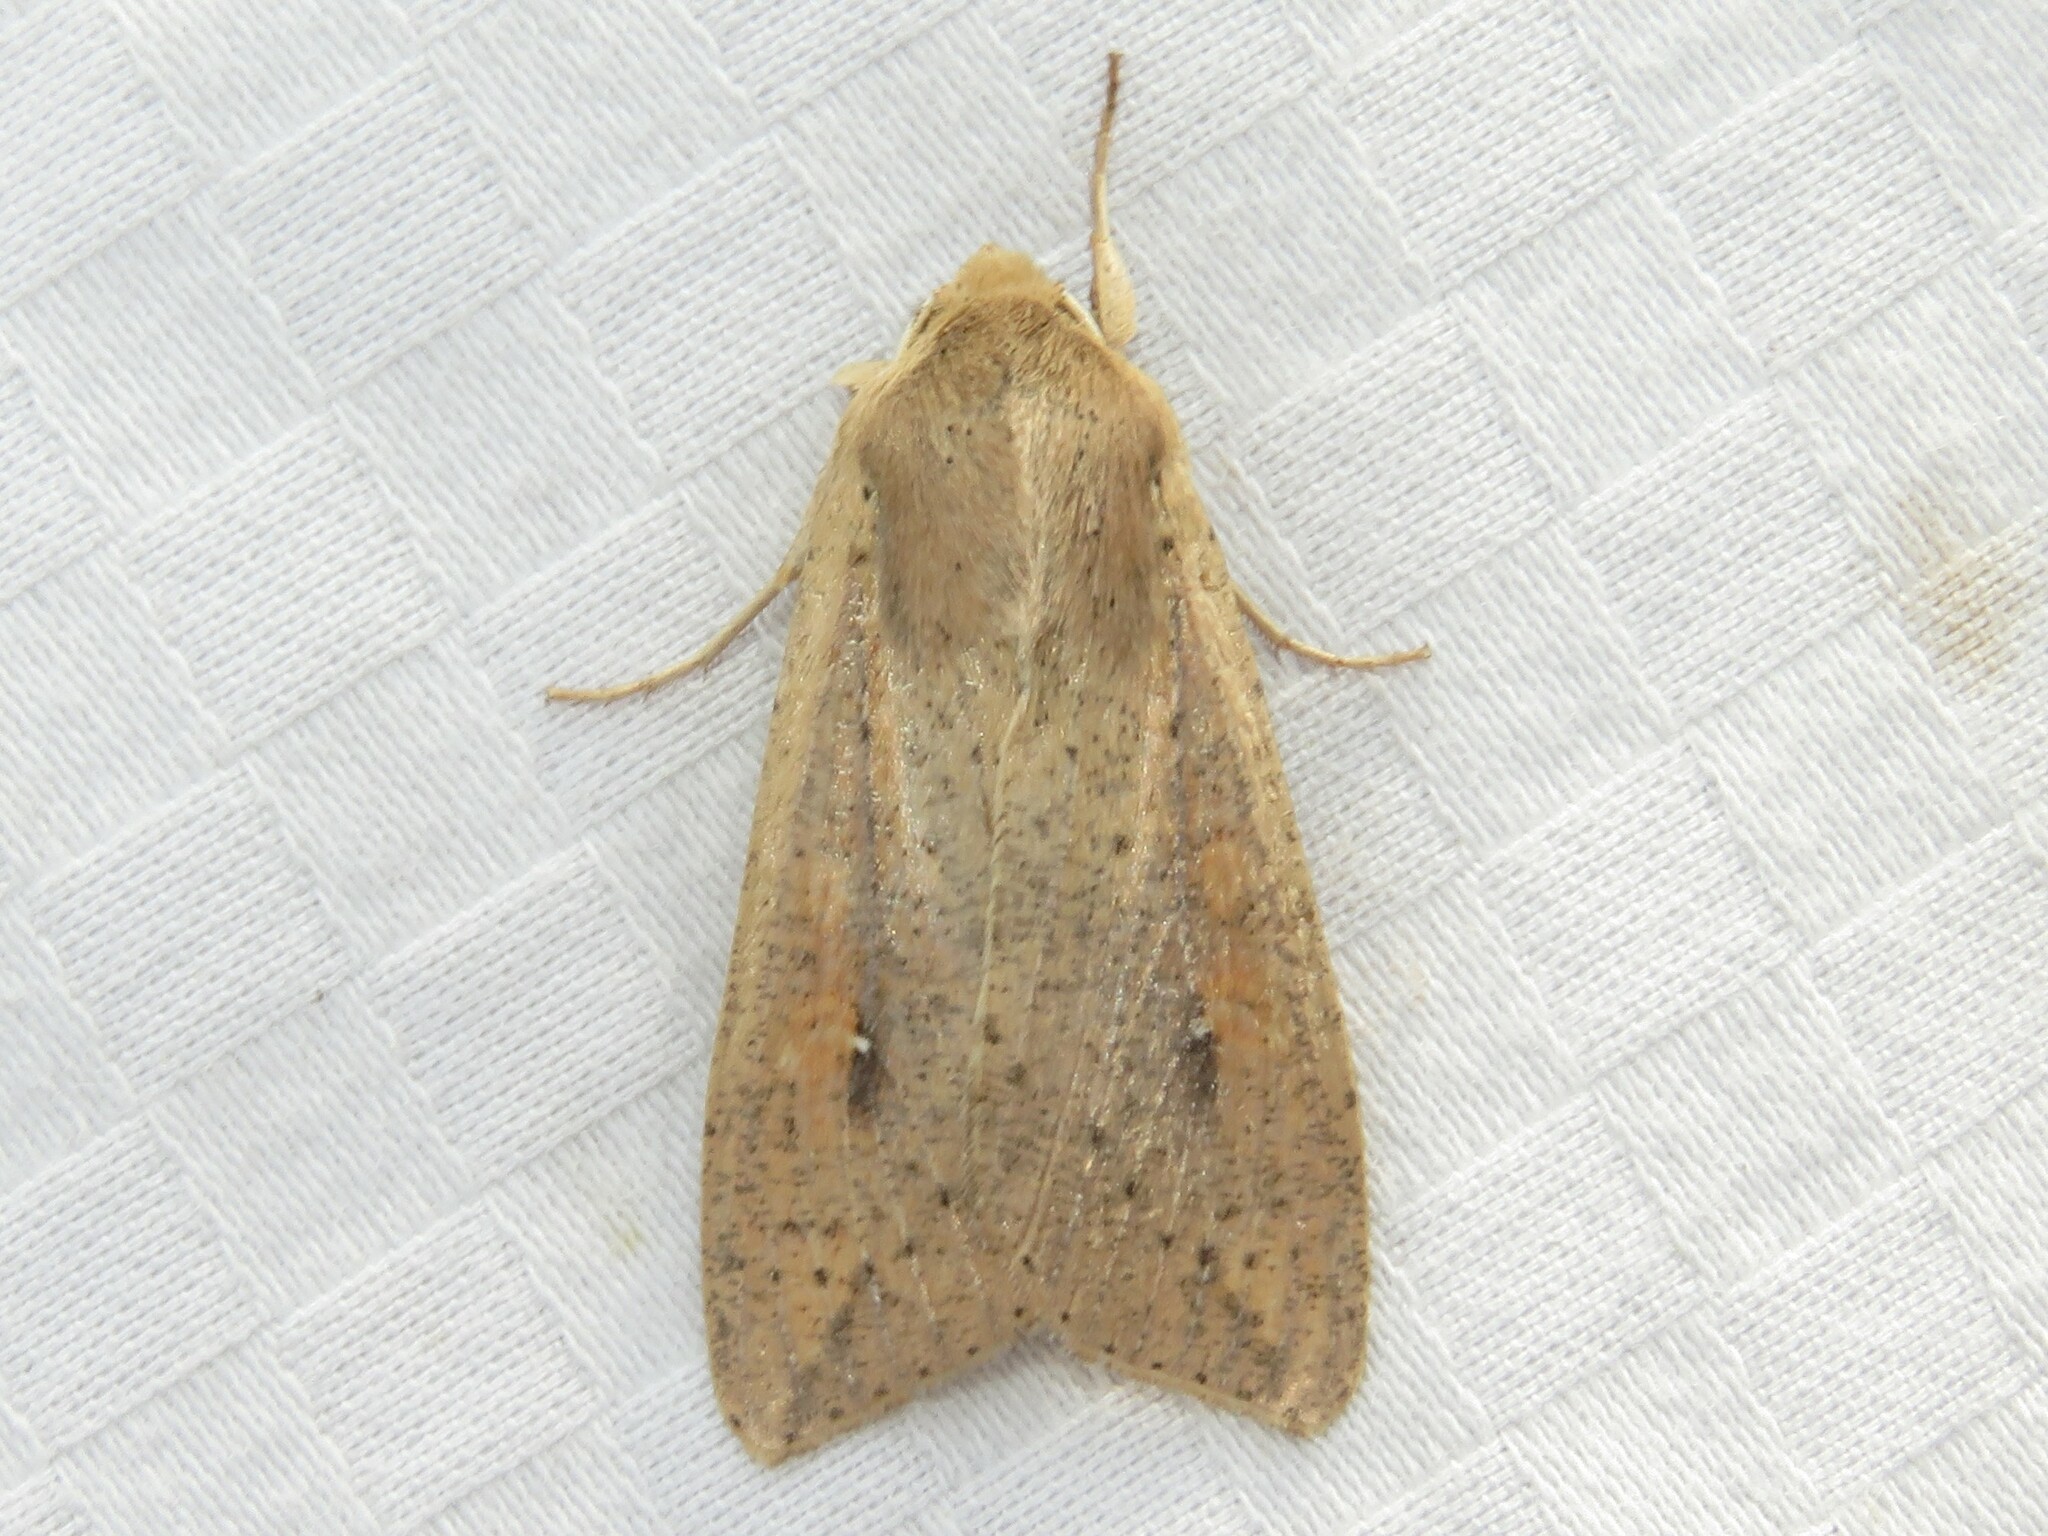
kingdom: Animalia
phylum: Arthropoda
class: Insecta
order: Lepidoptera
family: Noctuidae
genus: Mythimna
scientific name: Mythimna unipuncta
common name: White-speck
